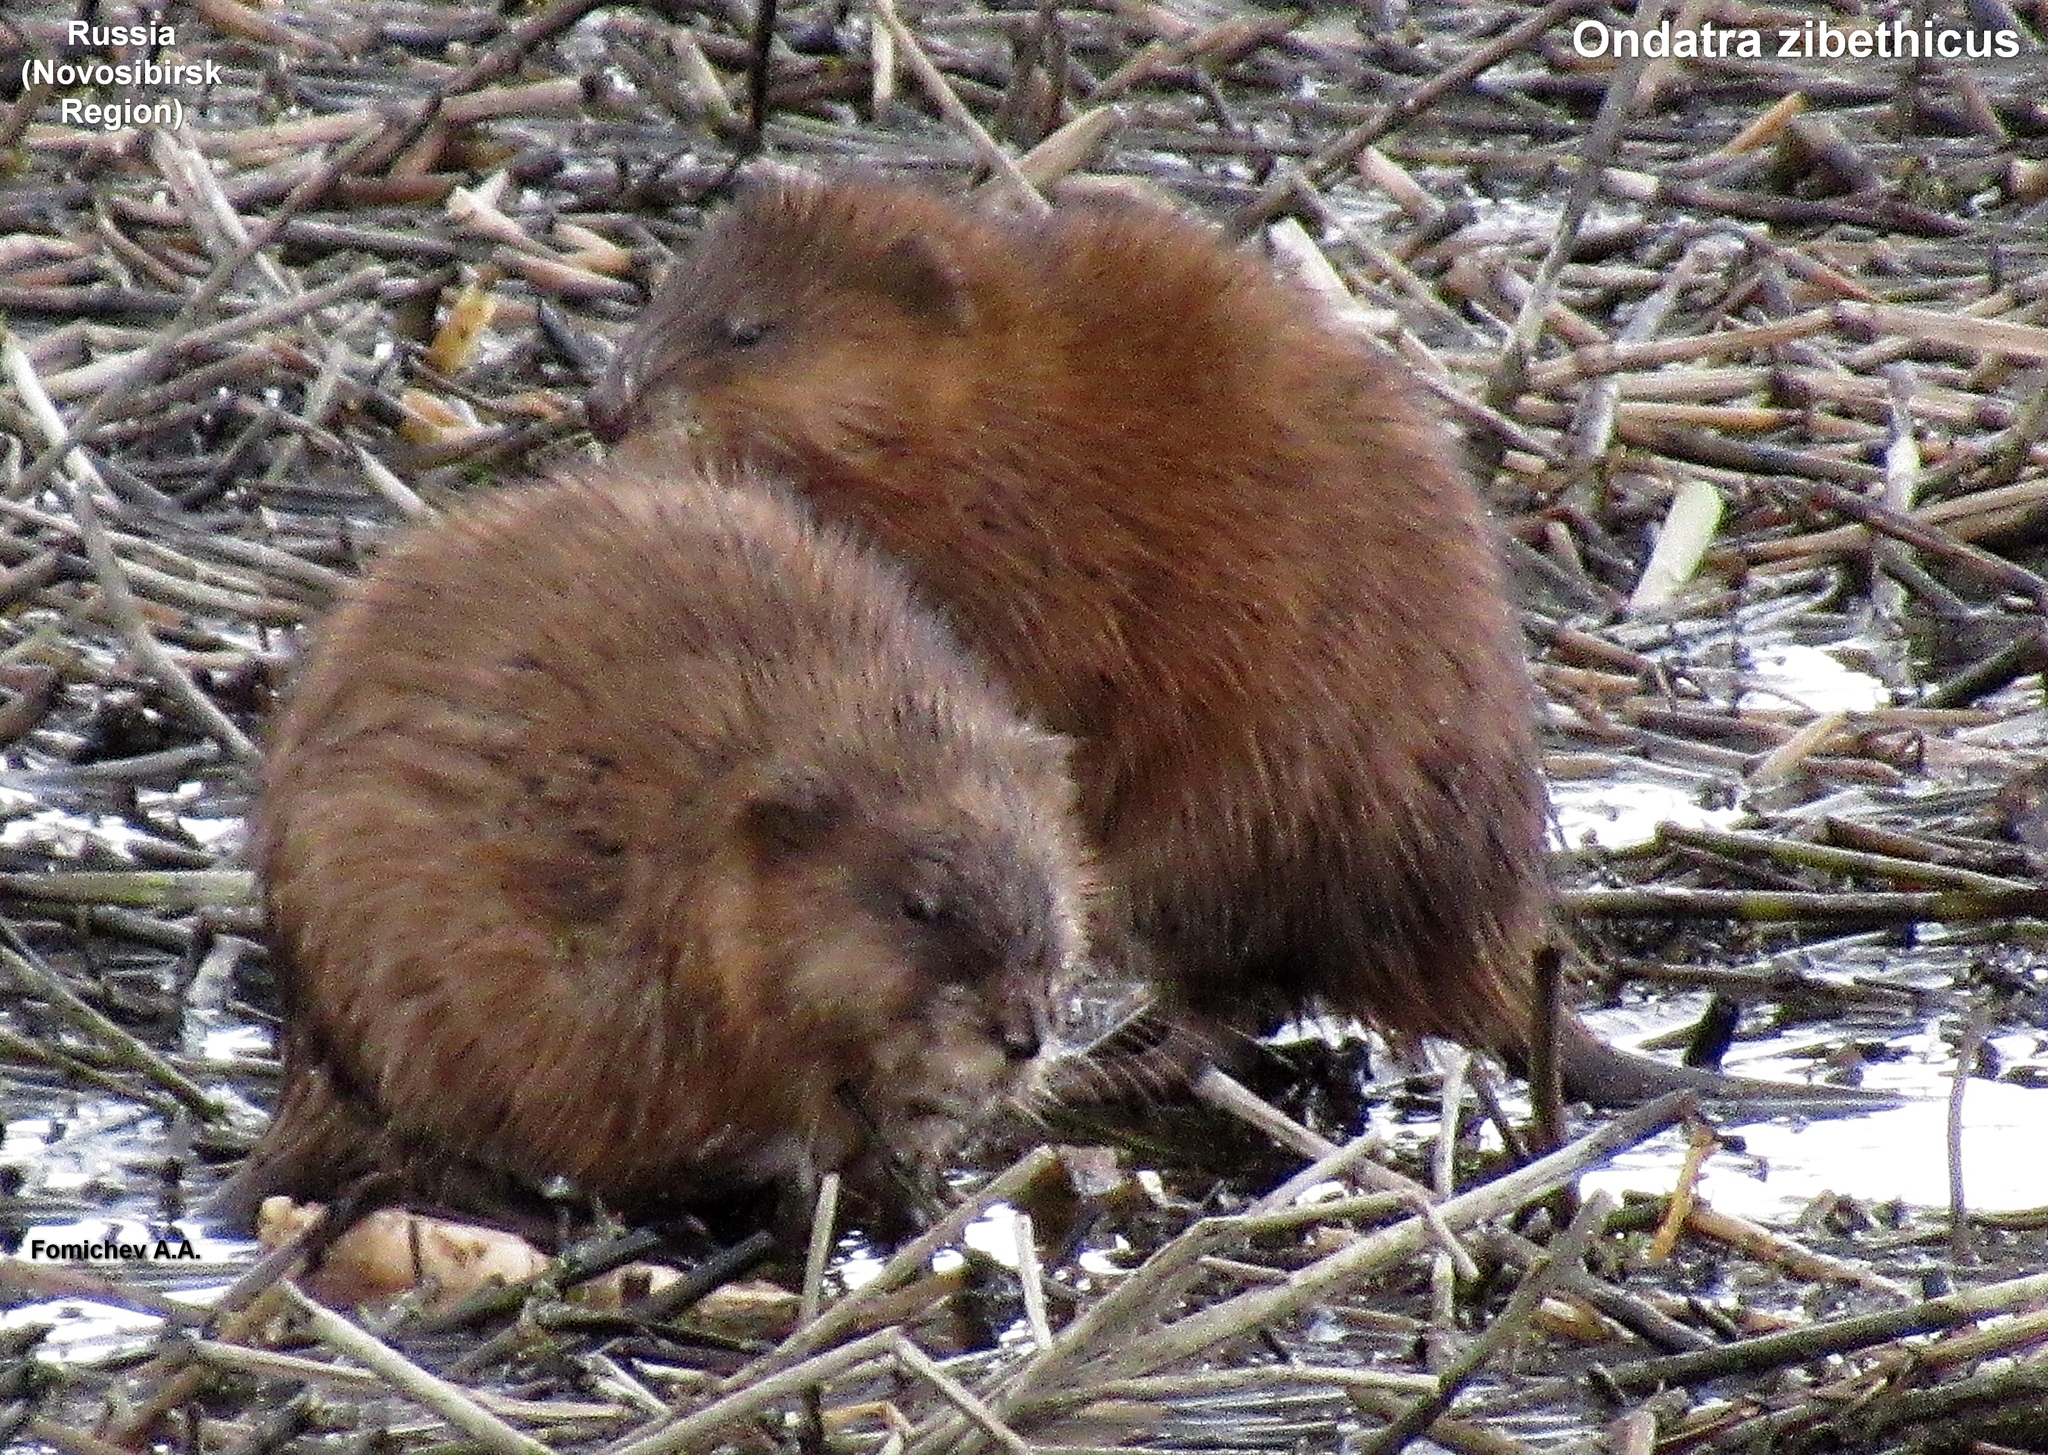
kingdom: Animalia
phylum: Chordata
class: Mammalia
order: Rodentia
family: Cricetidae
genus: Ondatra
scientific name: Ondatra zibethicus
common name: Muskrat
